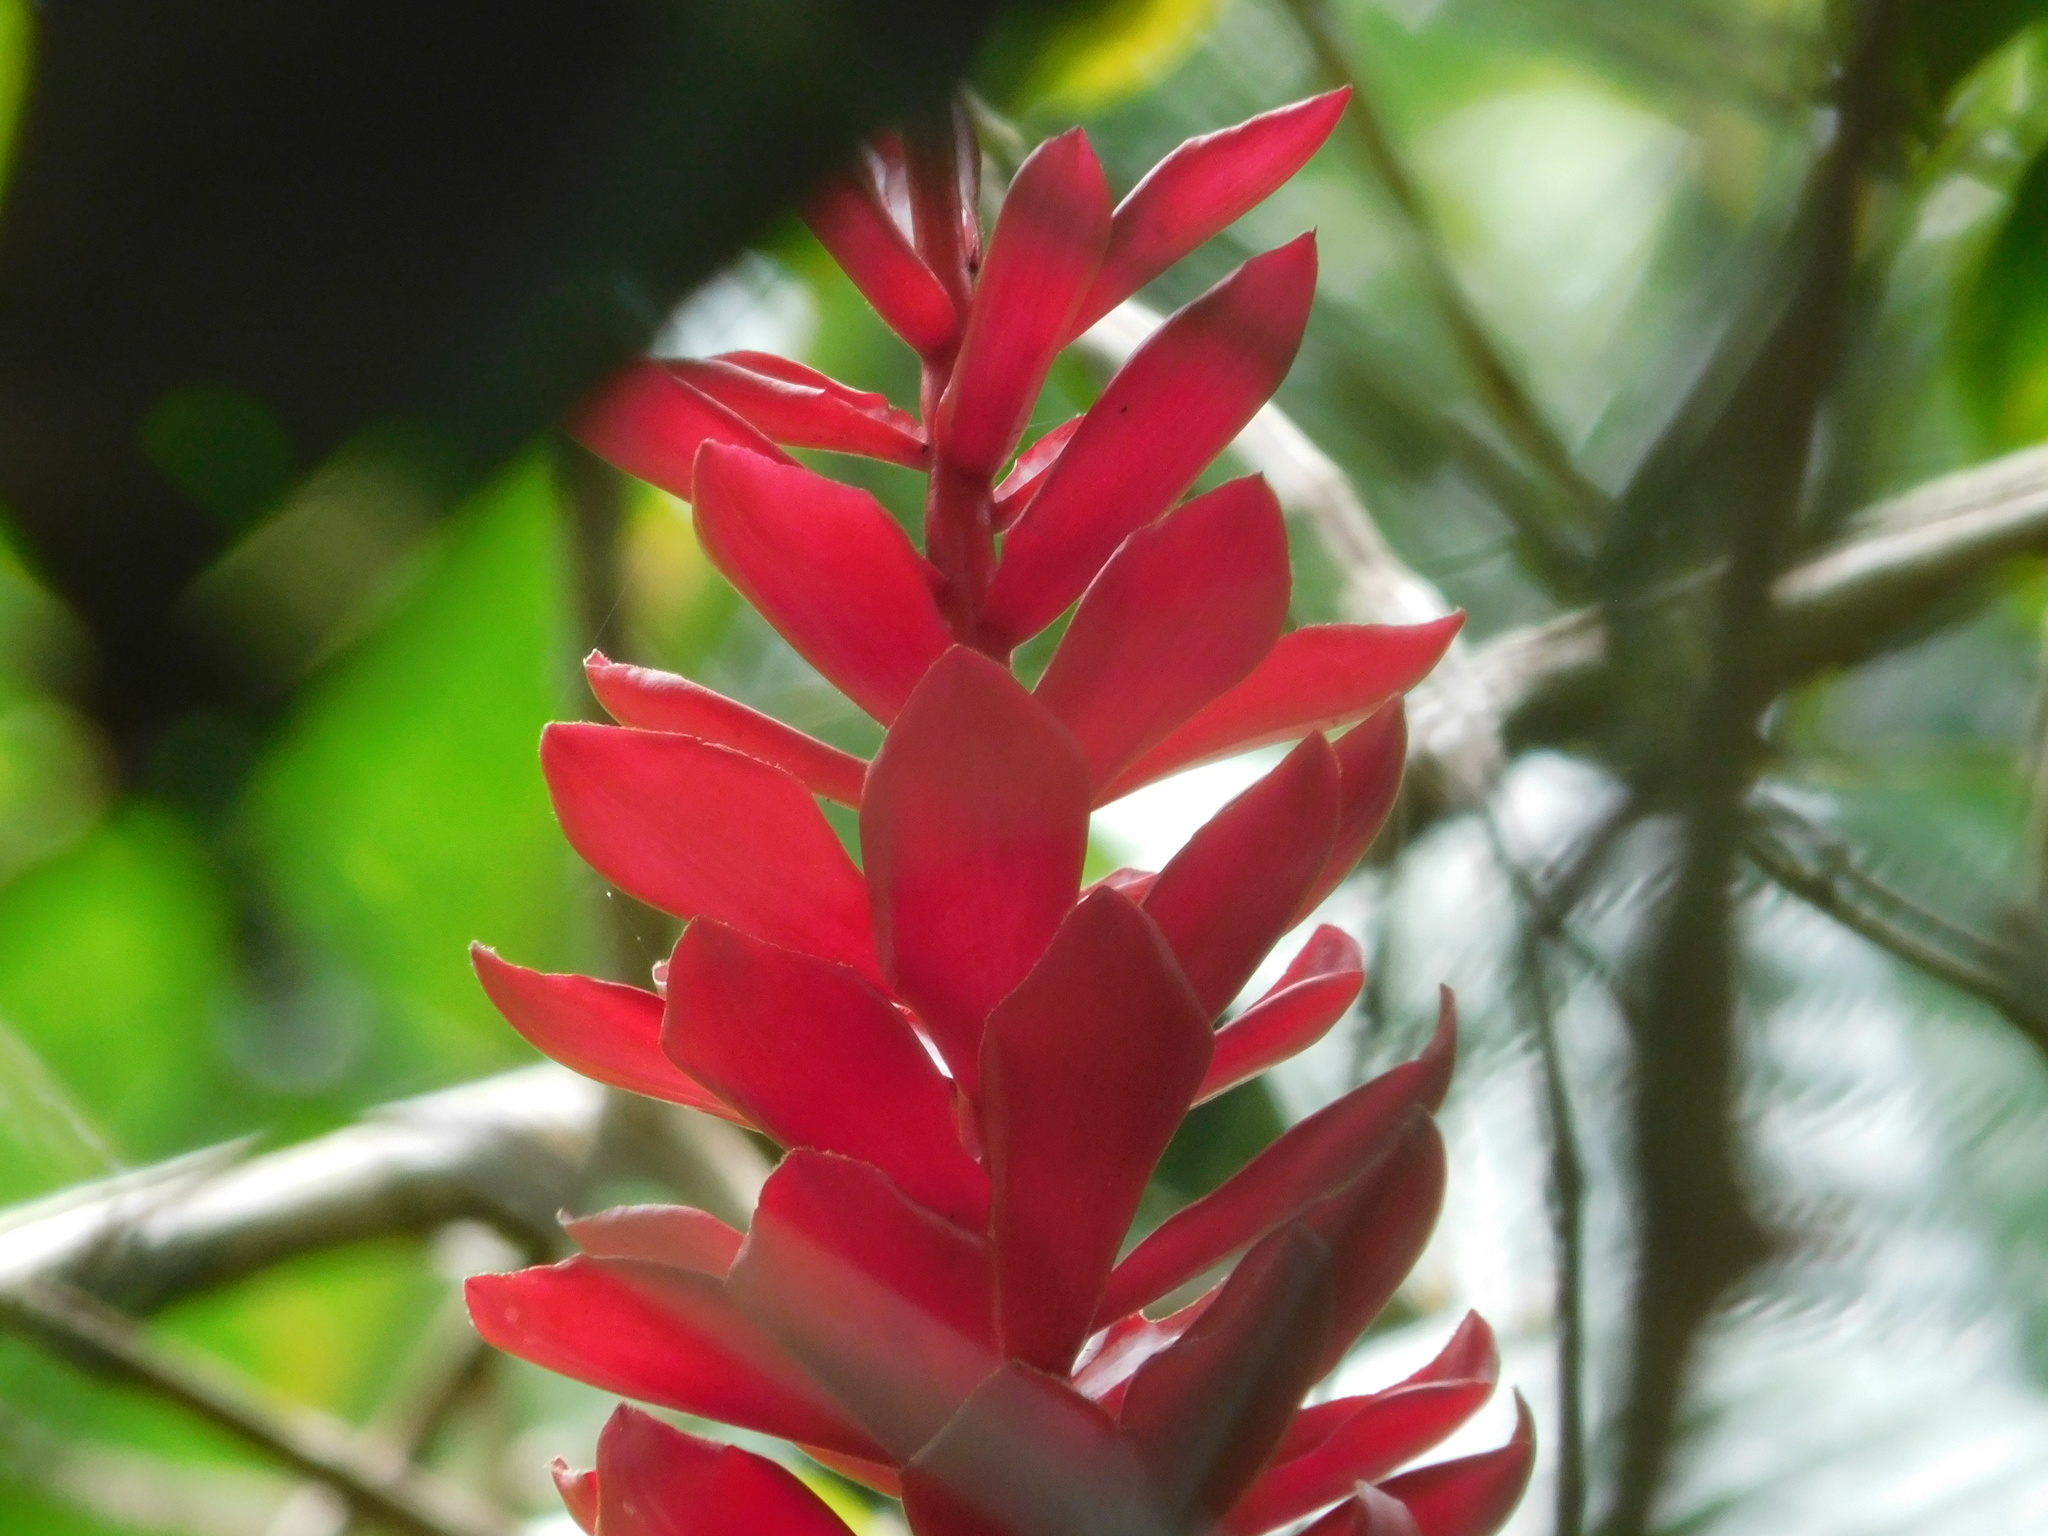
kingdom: Plantae
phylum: Tracheophyta
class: Liliopsida
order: Zingiberales
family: Zingiberaceae
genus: Alpinia
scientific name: Alpinia purpurata
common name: Red ginger
